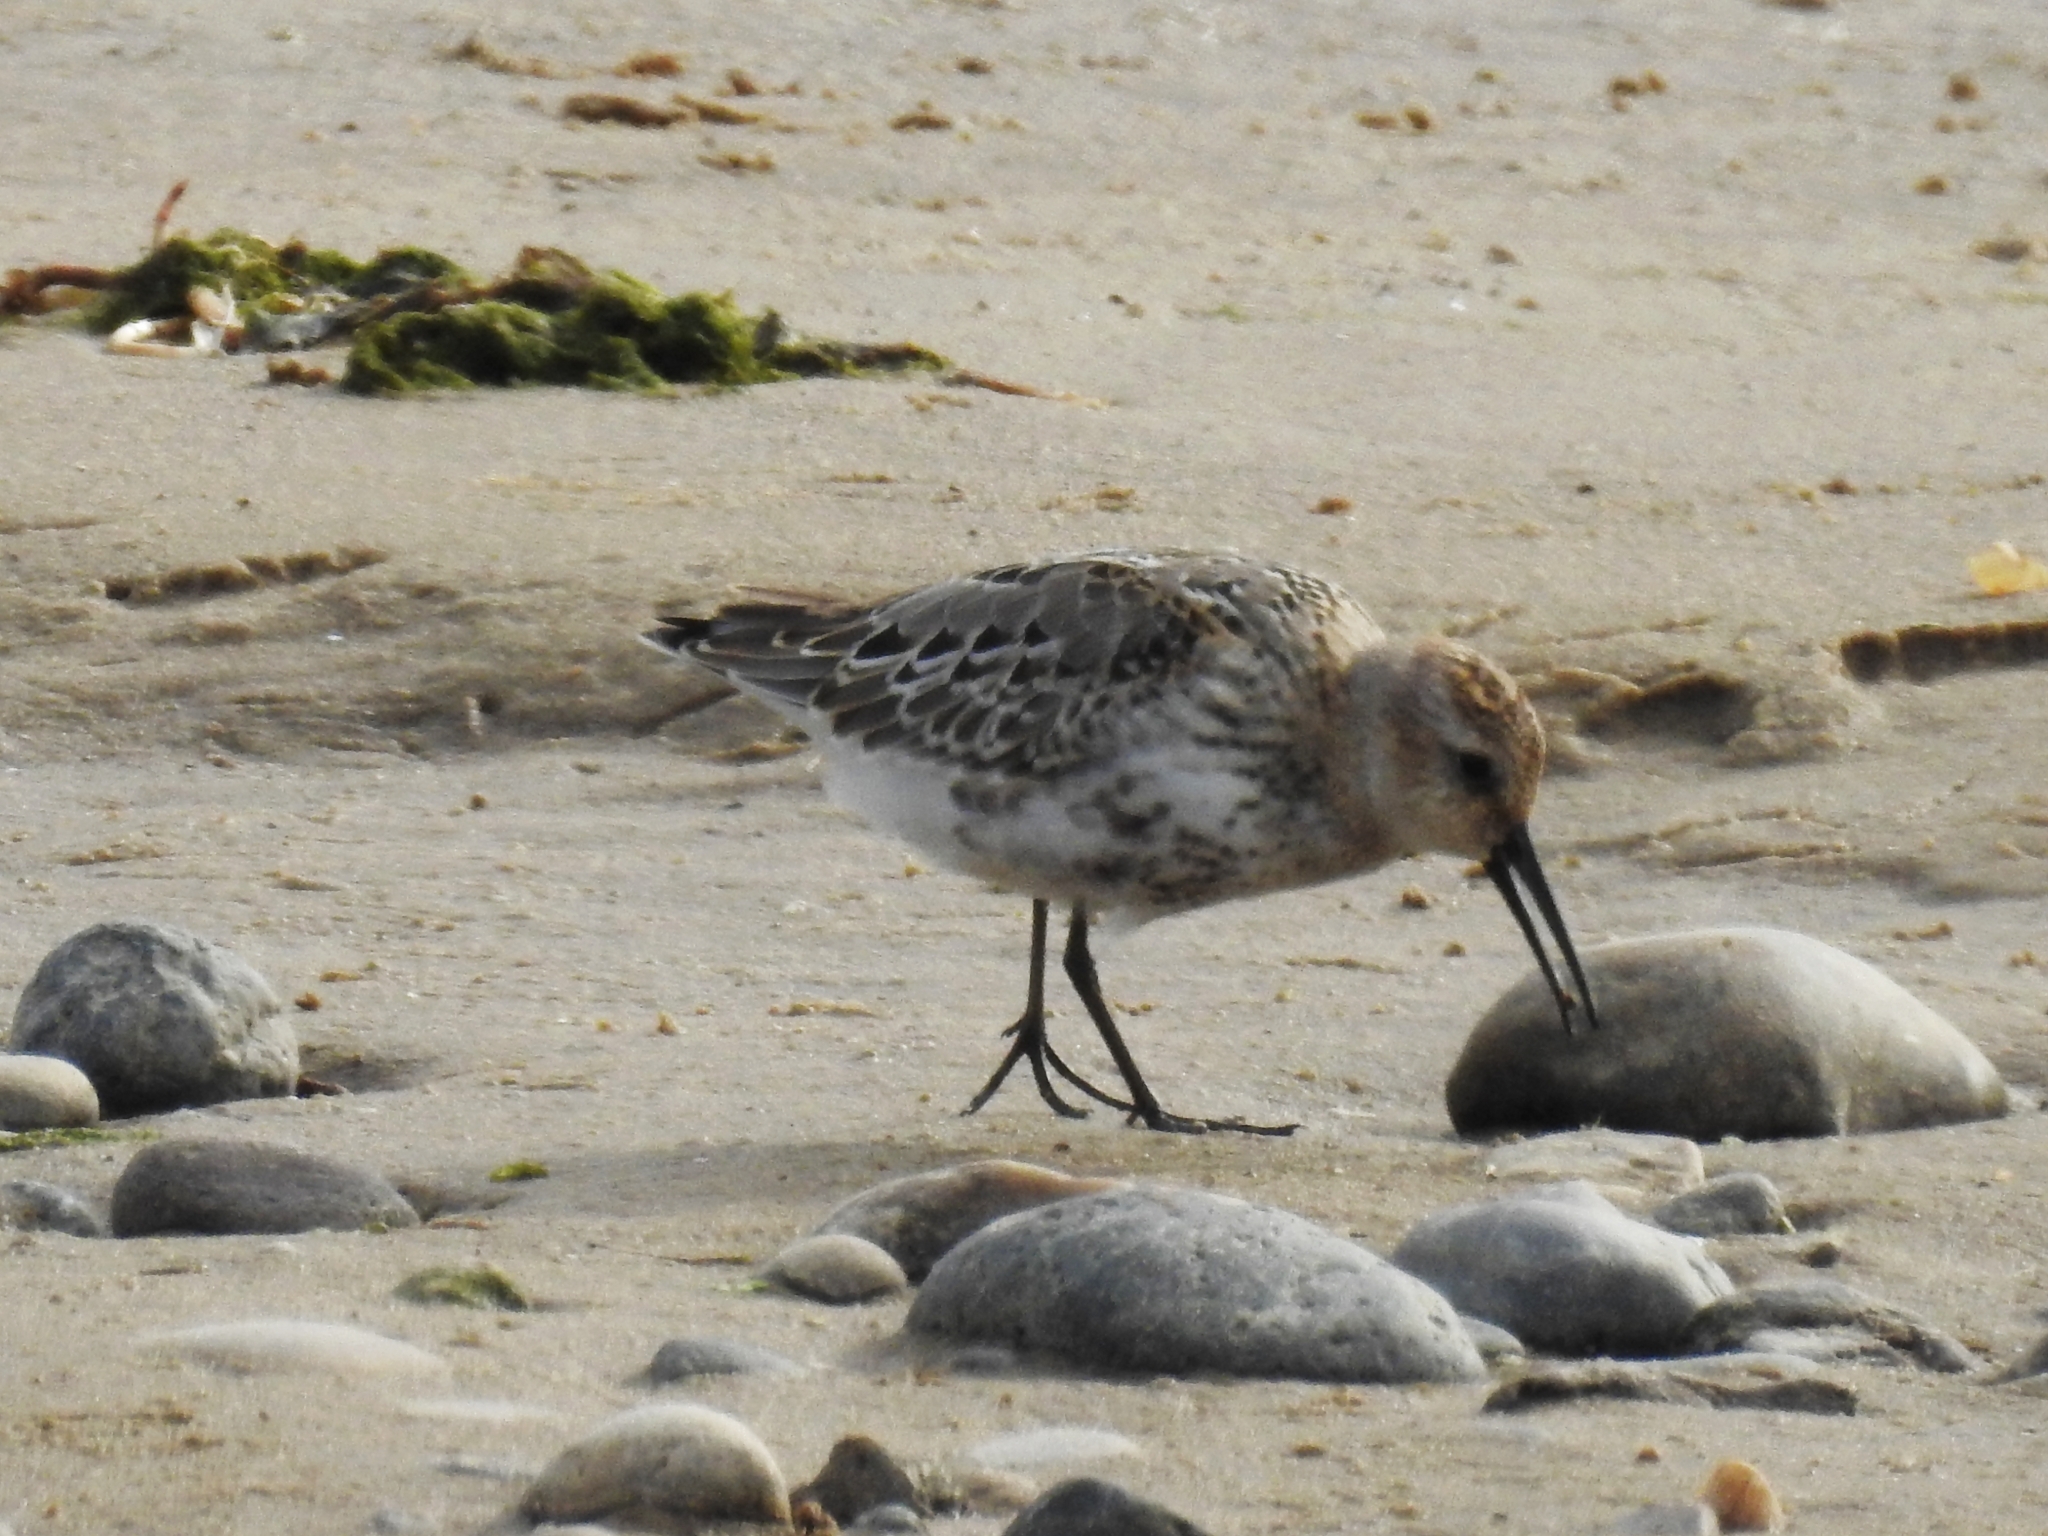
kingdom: Animalia
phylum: Chordata
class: Aves
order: Charadriiformes
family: Scolopacidae
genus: Calidris
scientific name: Calidris alpina
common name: Dunlin
